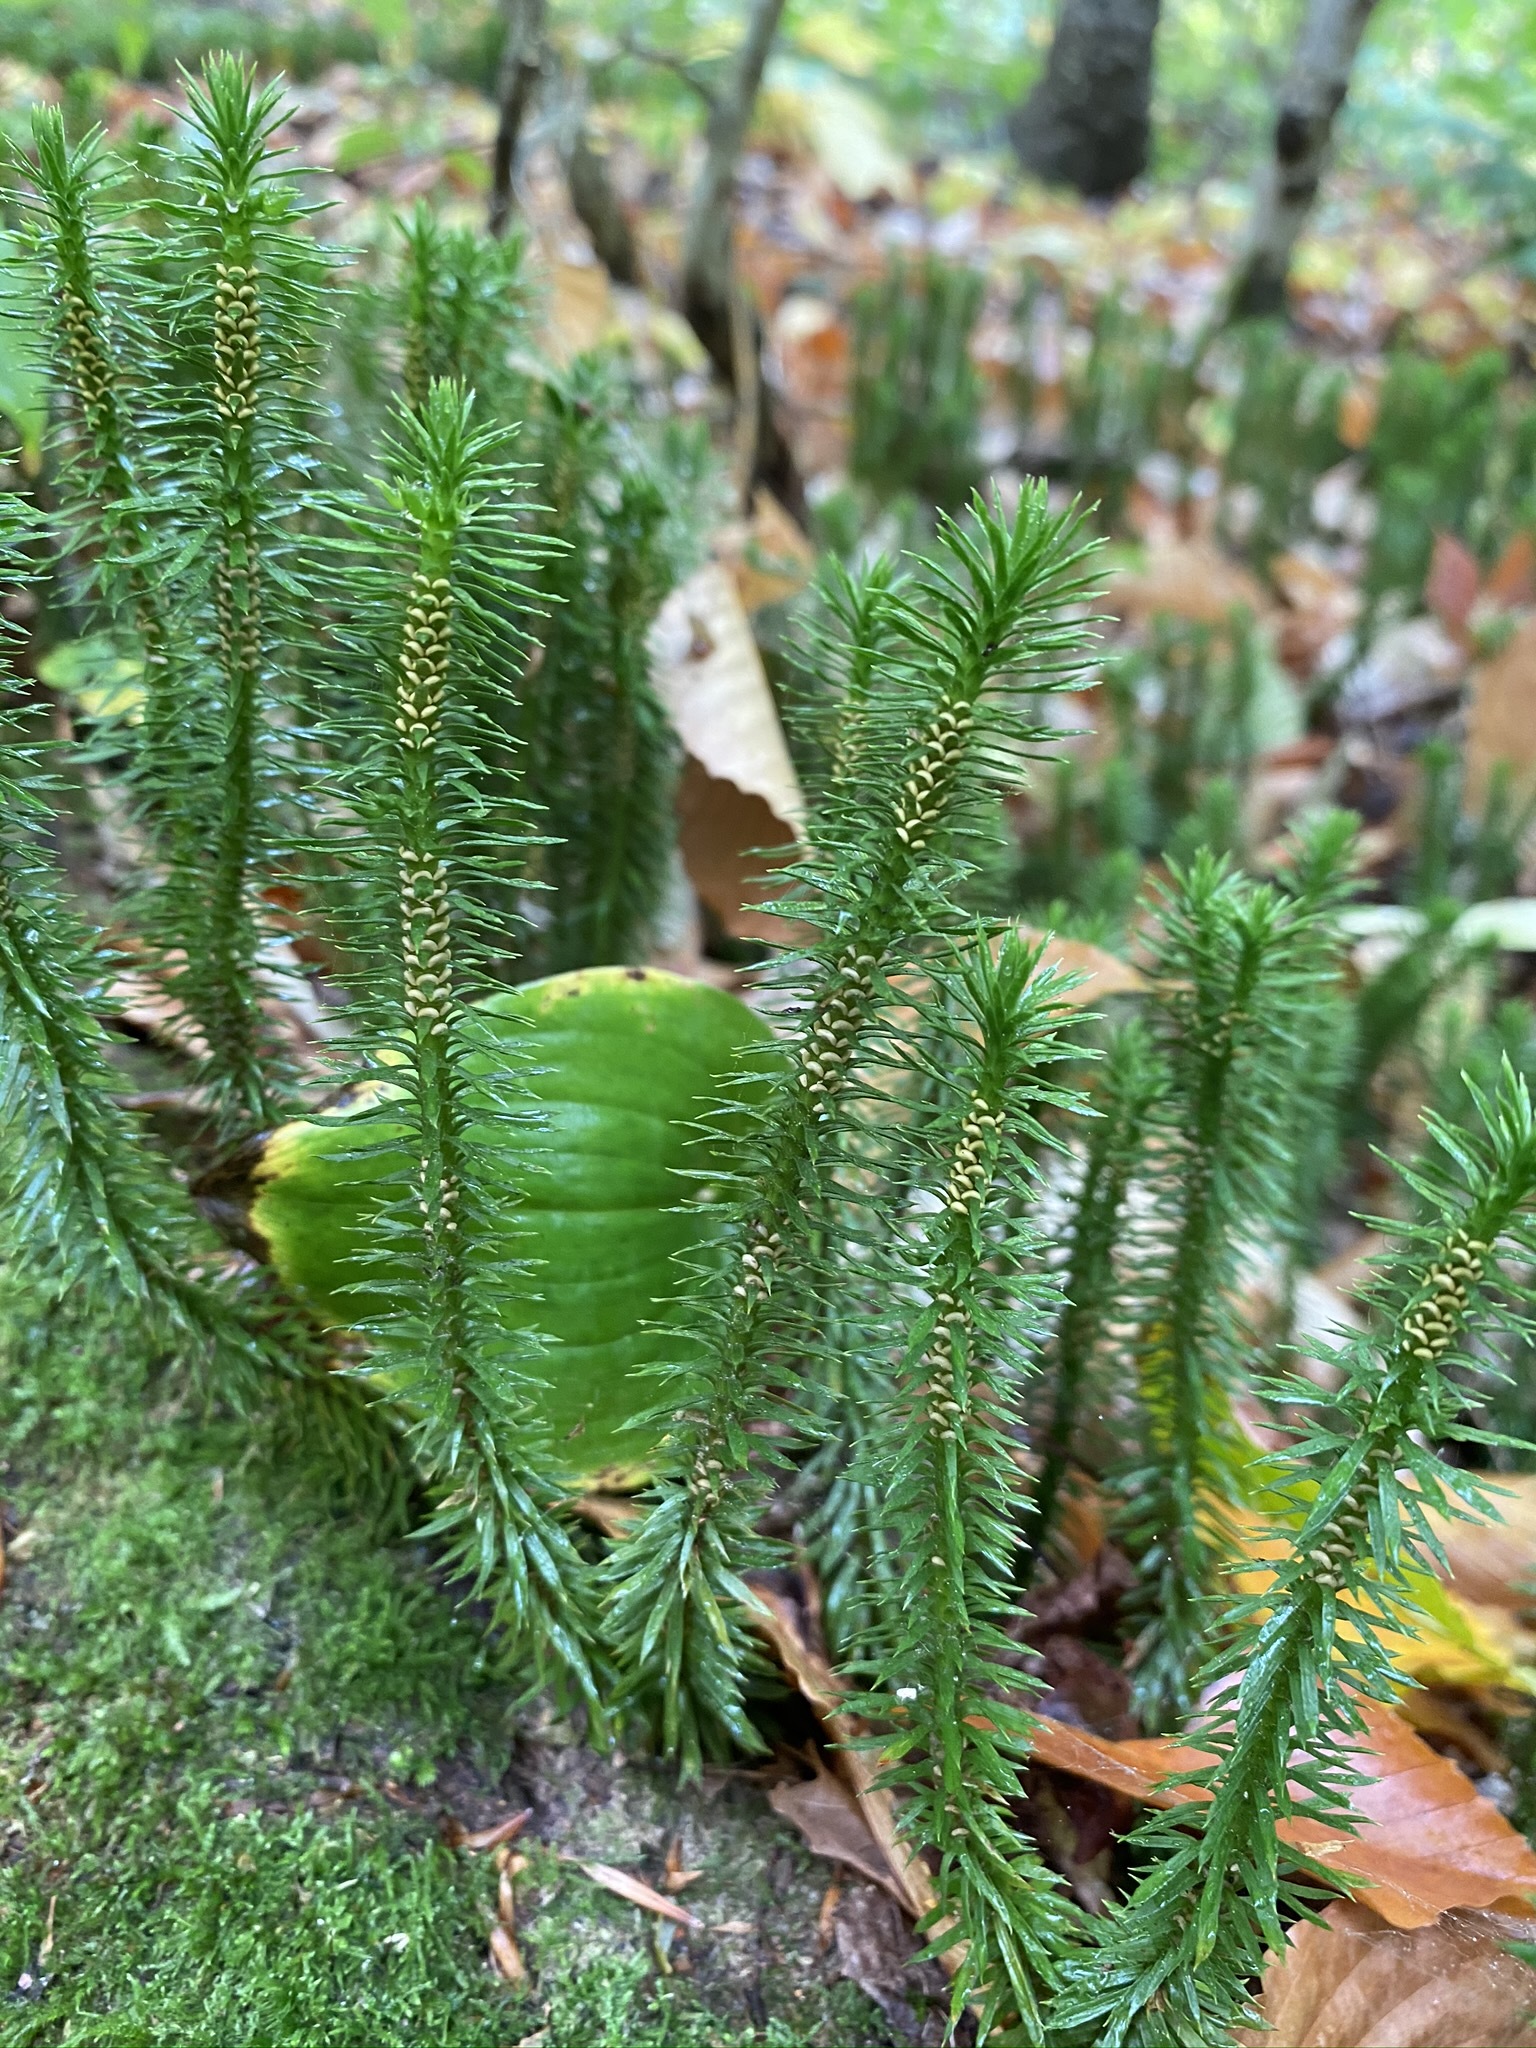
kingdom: Plantae
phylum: Tracheophyta
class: Lycopodiopsida
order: Lycopodiales
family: Lycopodiaceae
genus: Huperzia
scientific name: Huperzia lucidula
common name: Shining clubmoss
